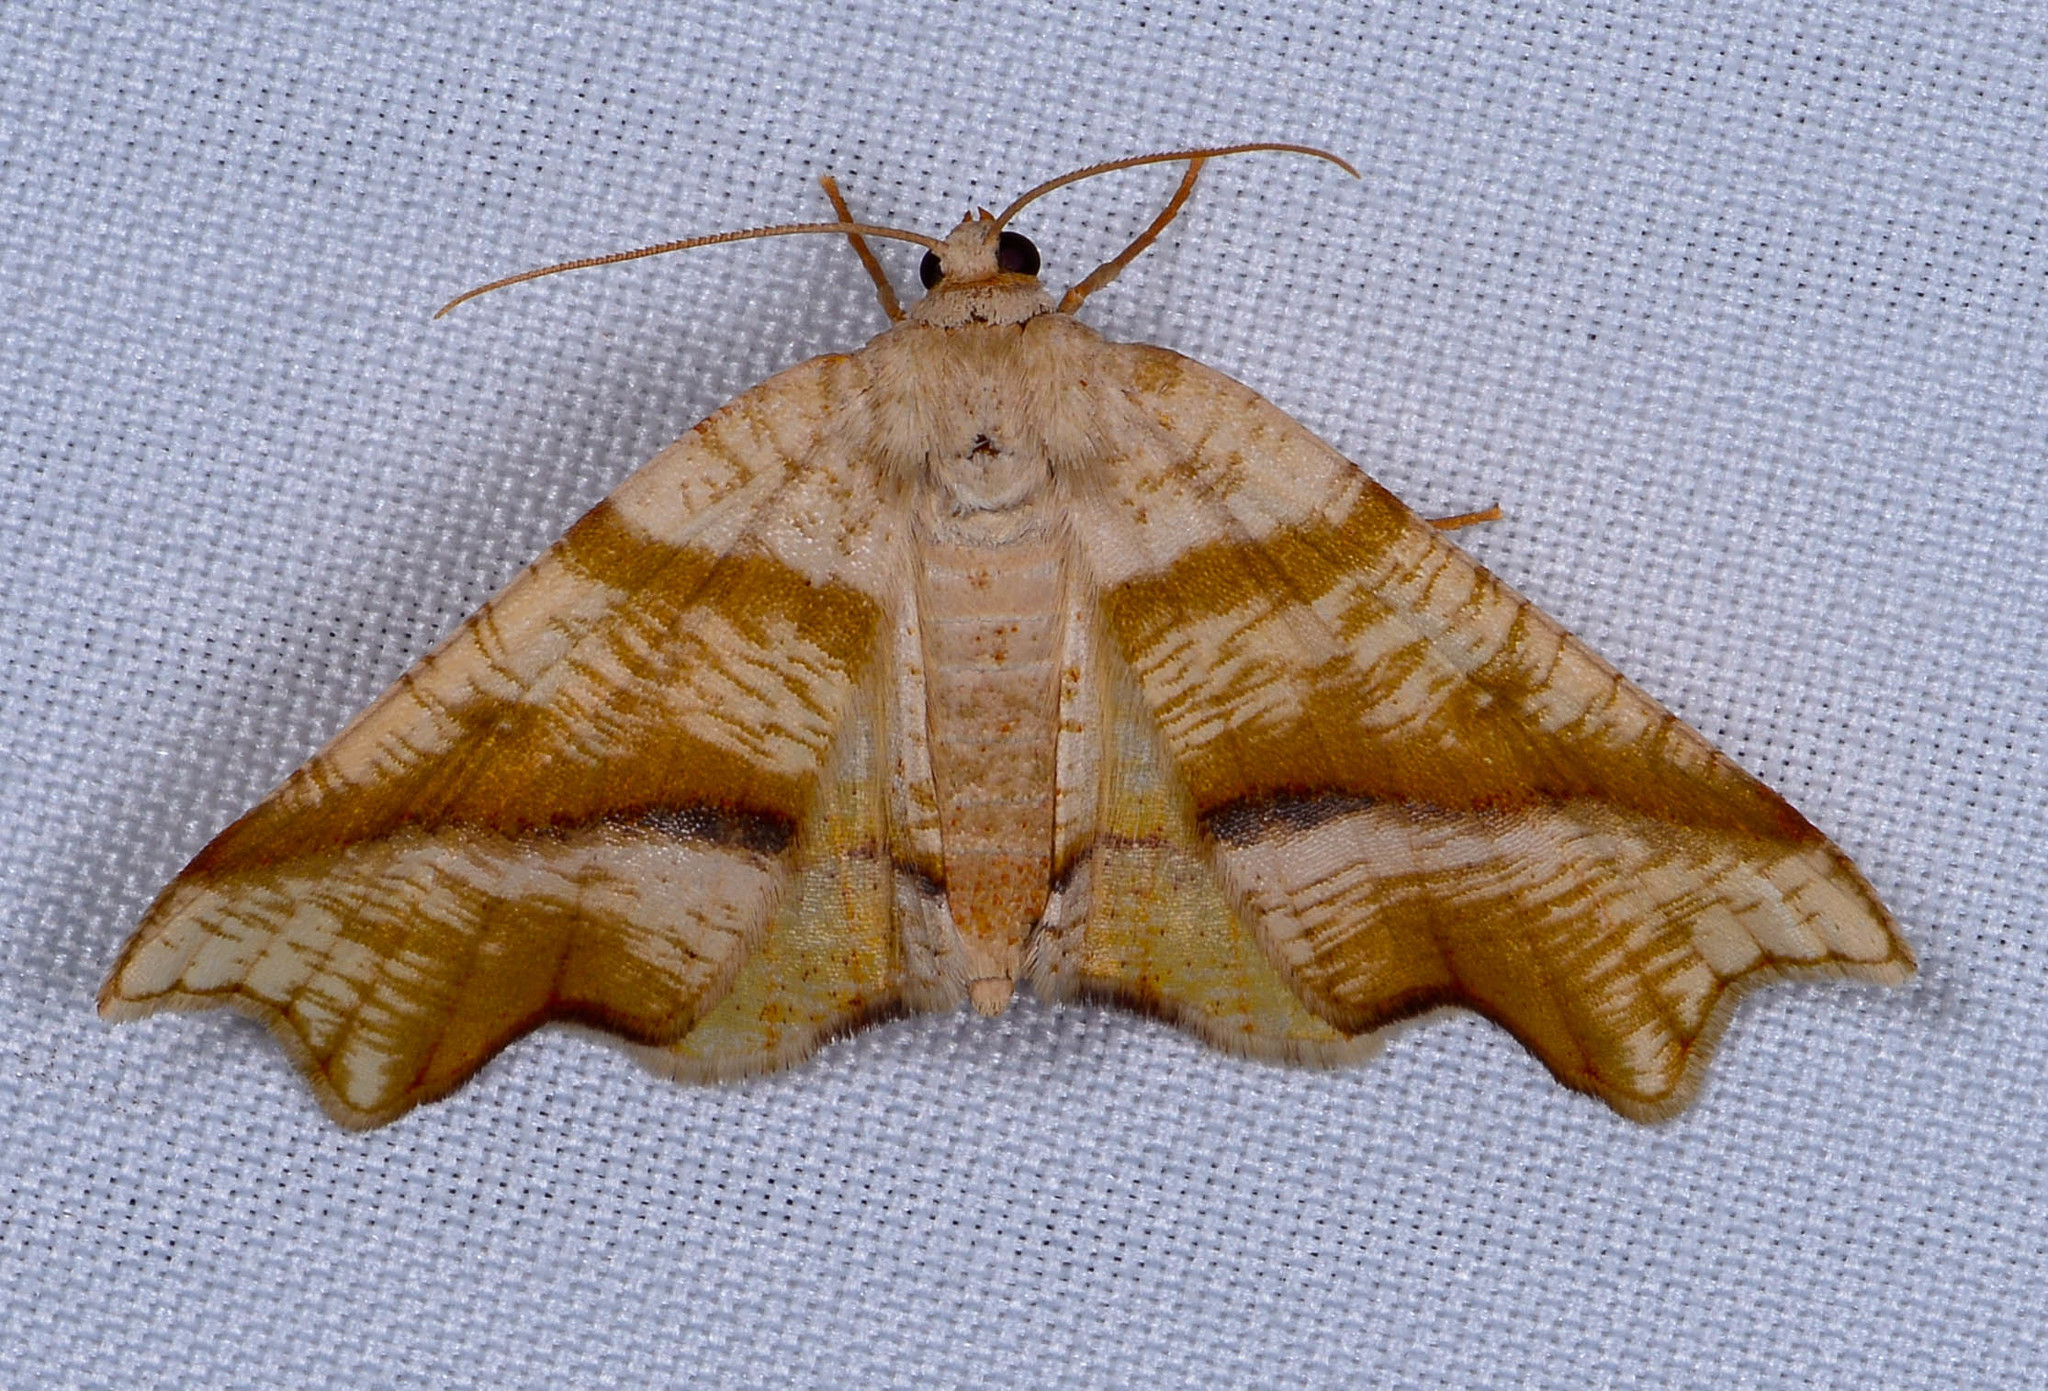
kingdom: Animalia
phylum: Arthropoda
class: Insecta
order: Lepidoptera
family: Geometridae
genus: Plagodis
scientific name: Plagodis alcoolaria
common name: Hollow-spotted plagodis
